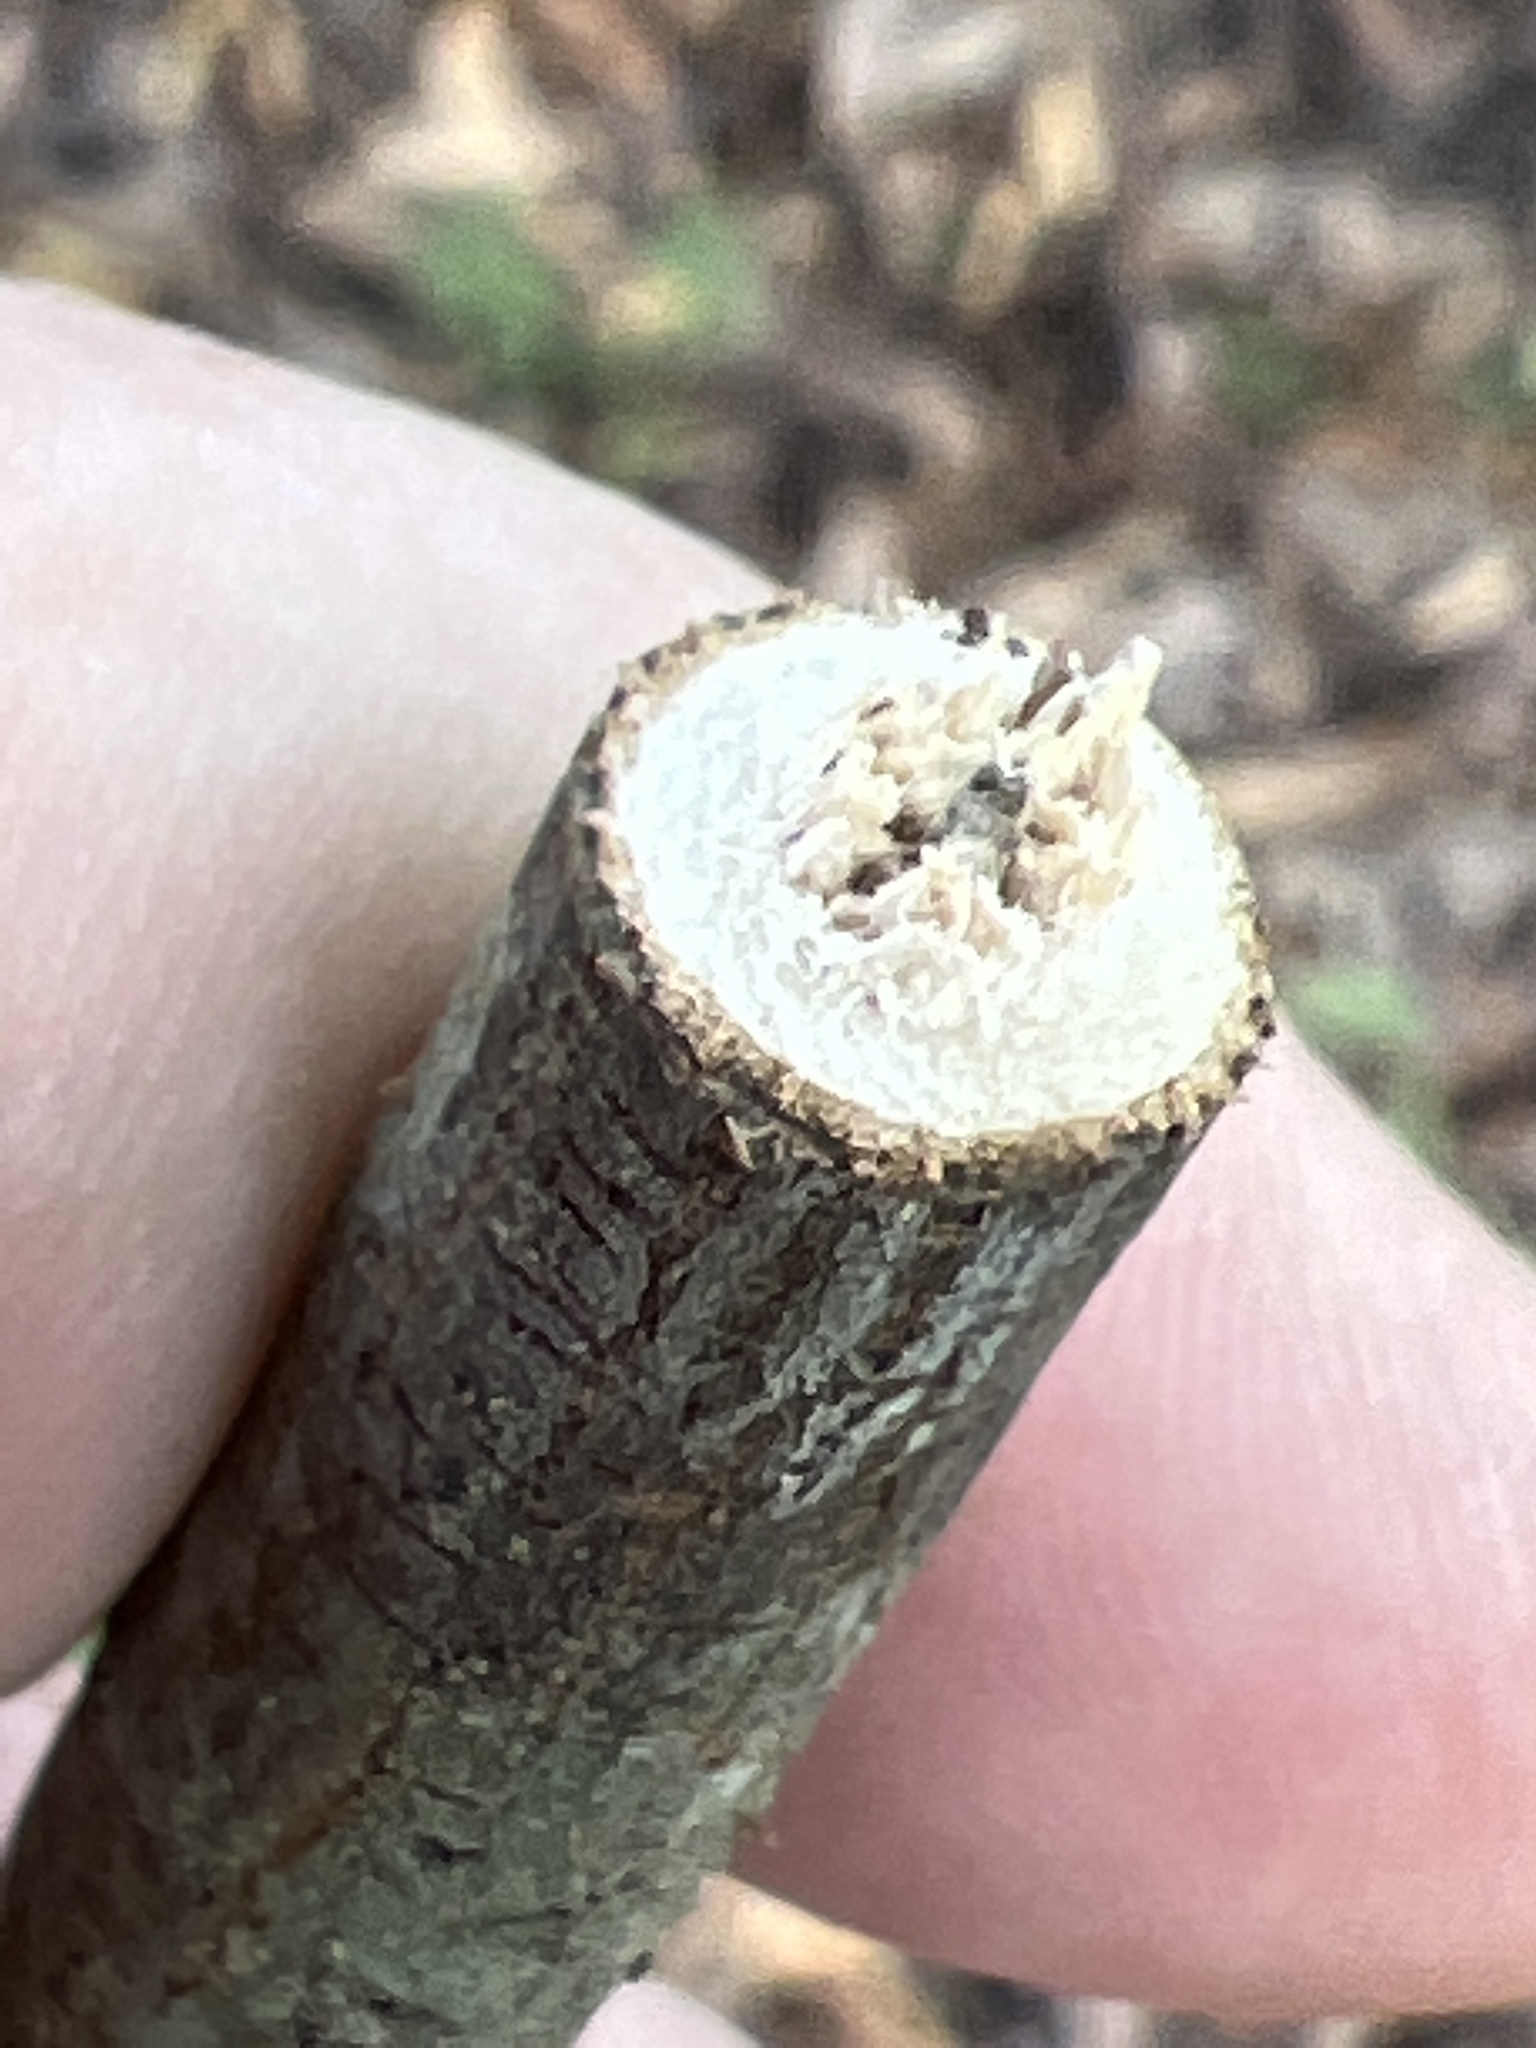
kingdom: Animalia
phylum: Arthropoda
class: Insecta
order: Coleoptera
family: Cerambycidae
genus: Oncideres
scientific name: Oncideres cingulata
